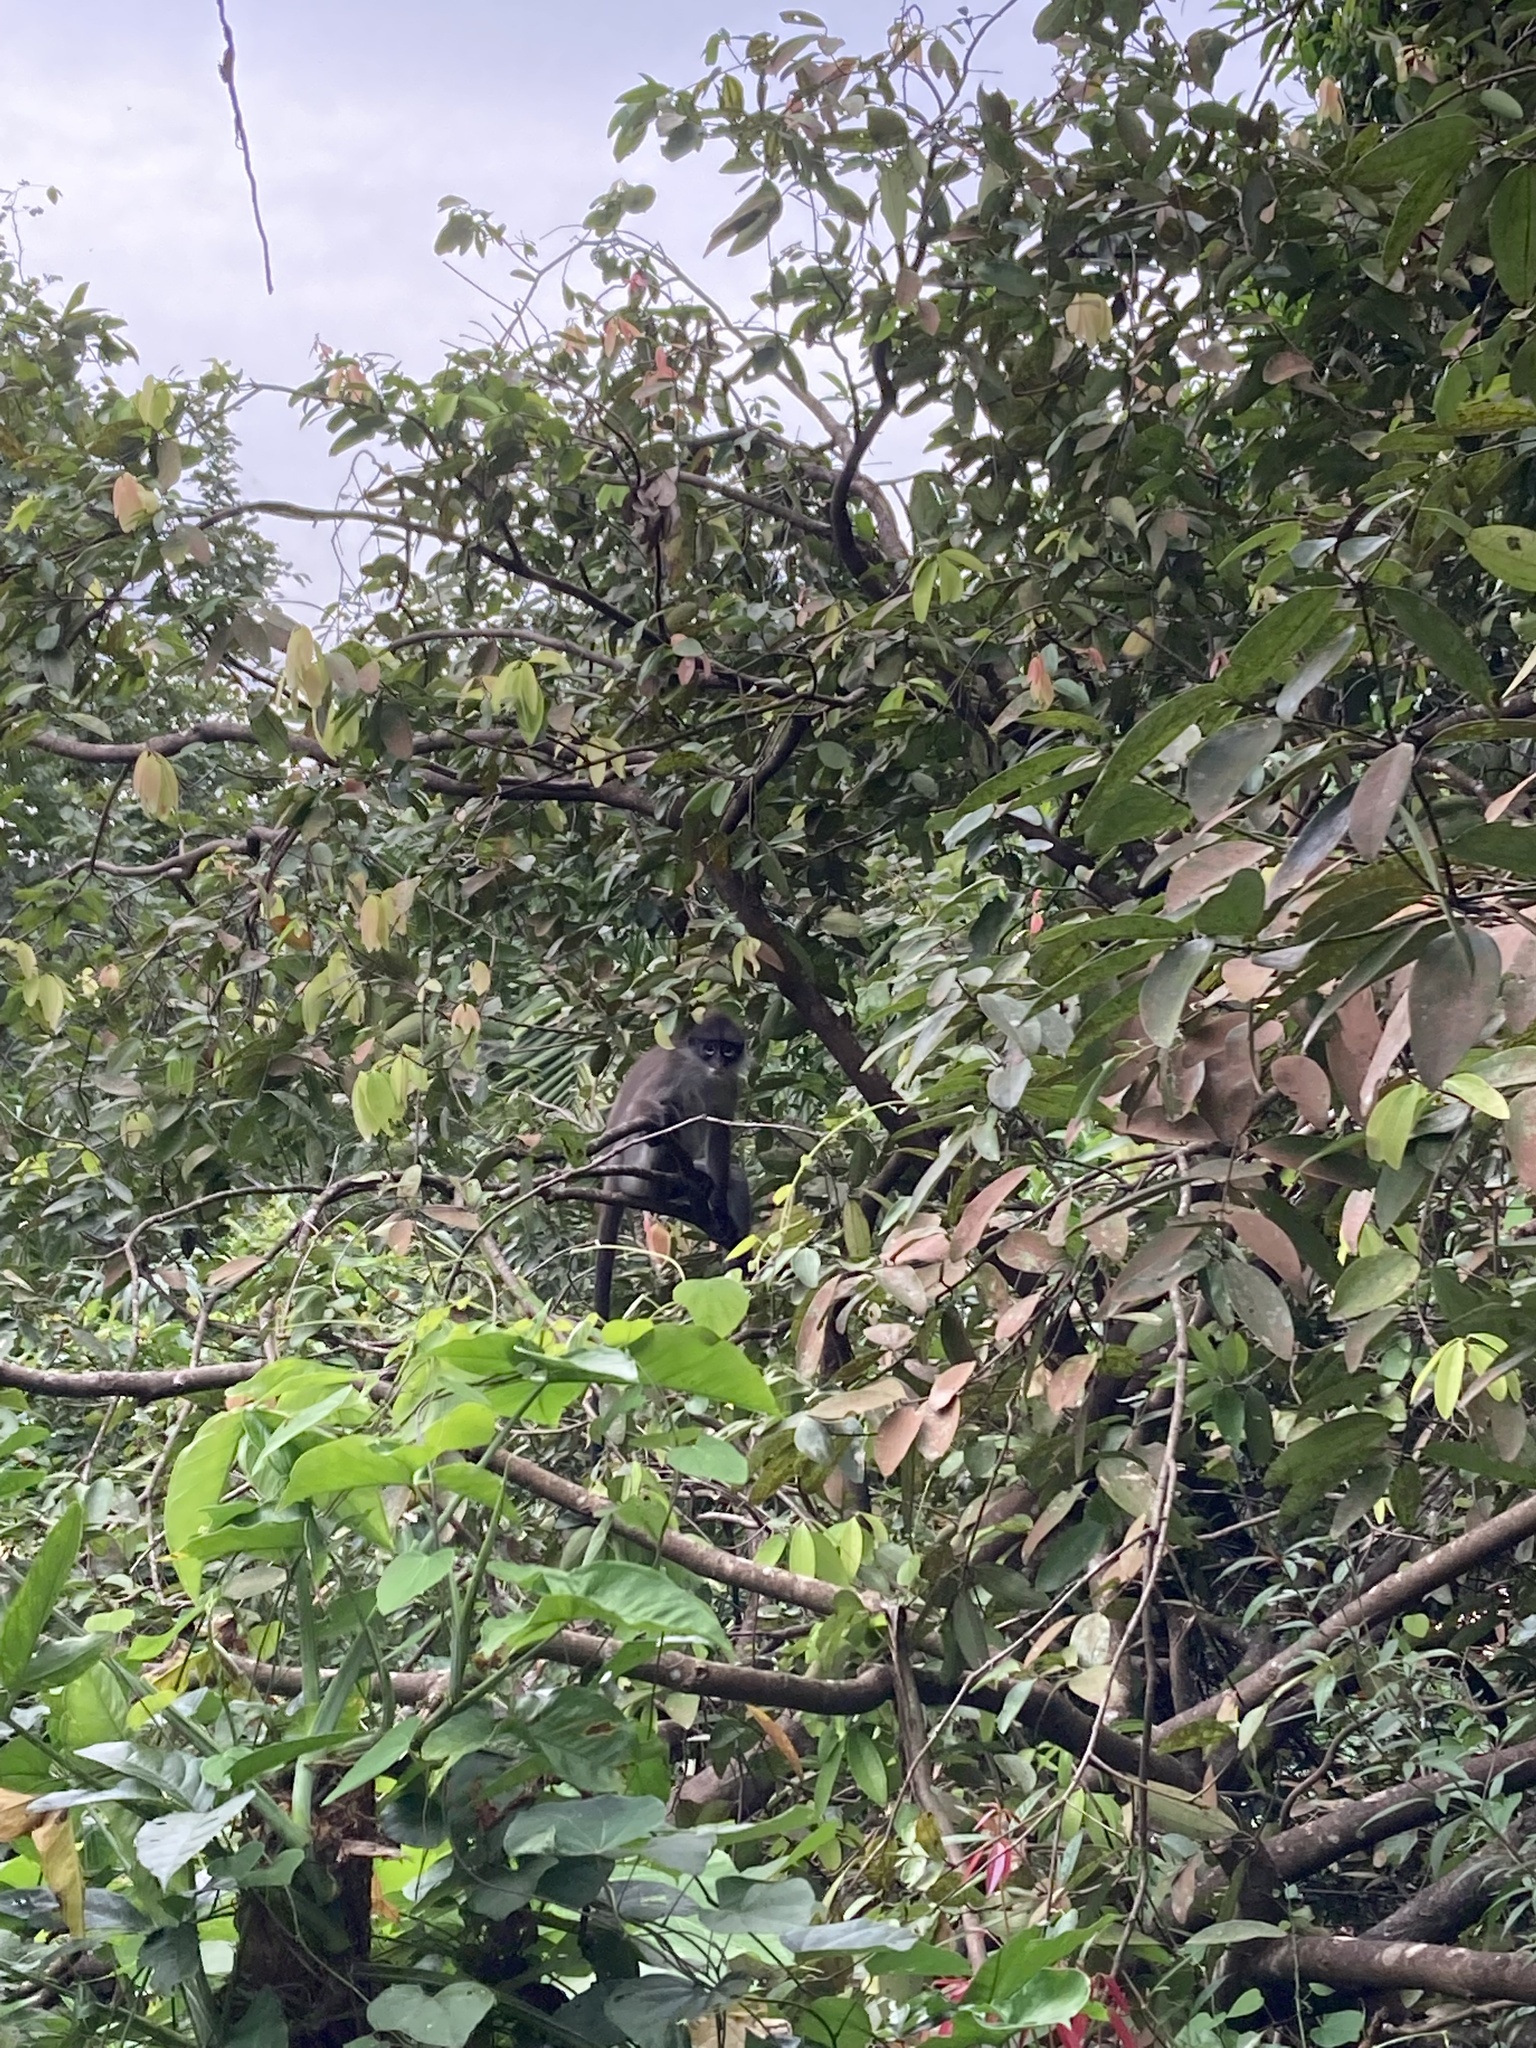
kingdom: Animalia
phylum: Chordata
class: Mammalia
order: Primates
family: Cercopithecidae
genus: Presbytis
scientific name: Presbytis siamensis
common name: White-thighed surili
